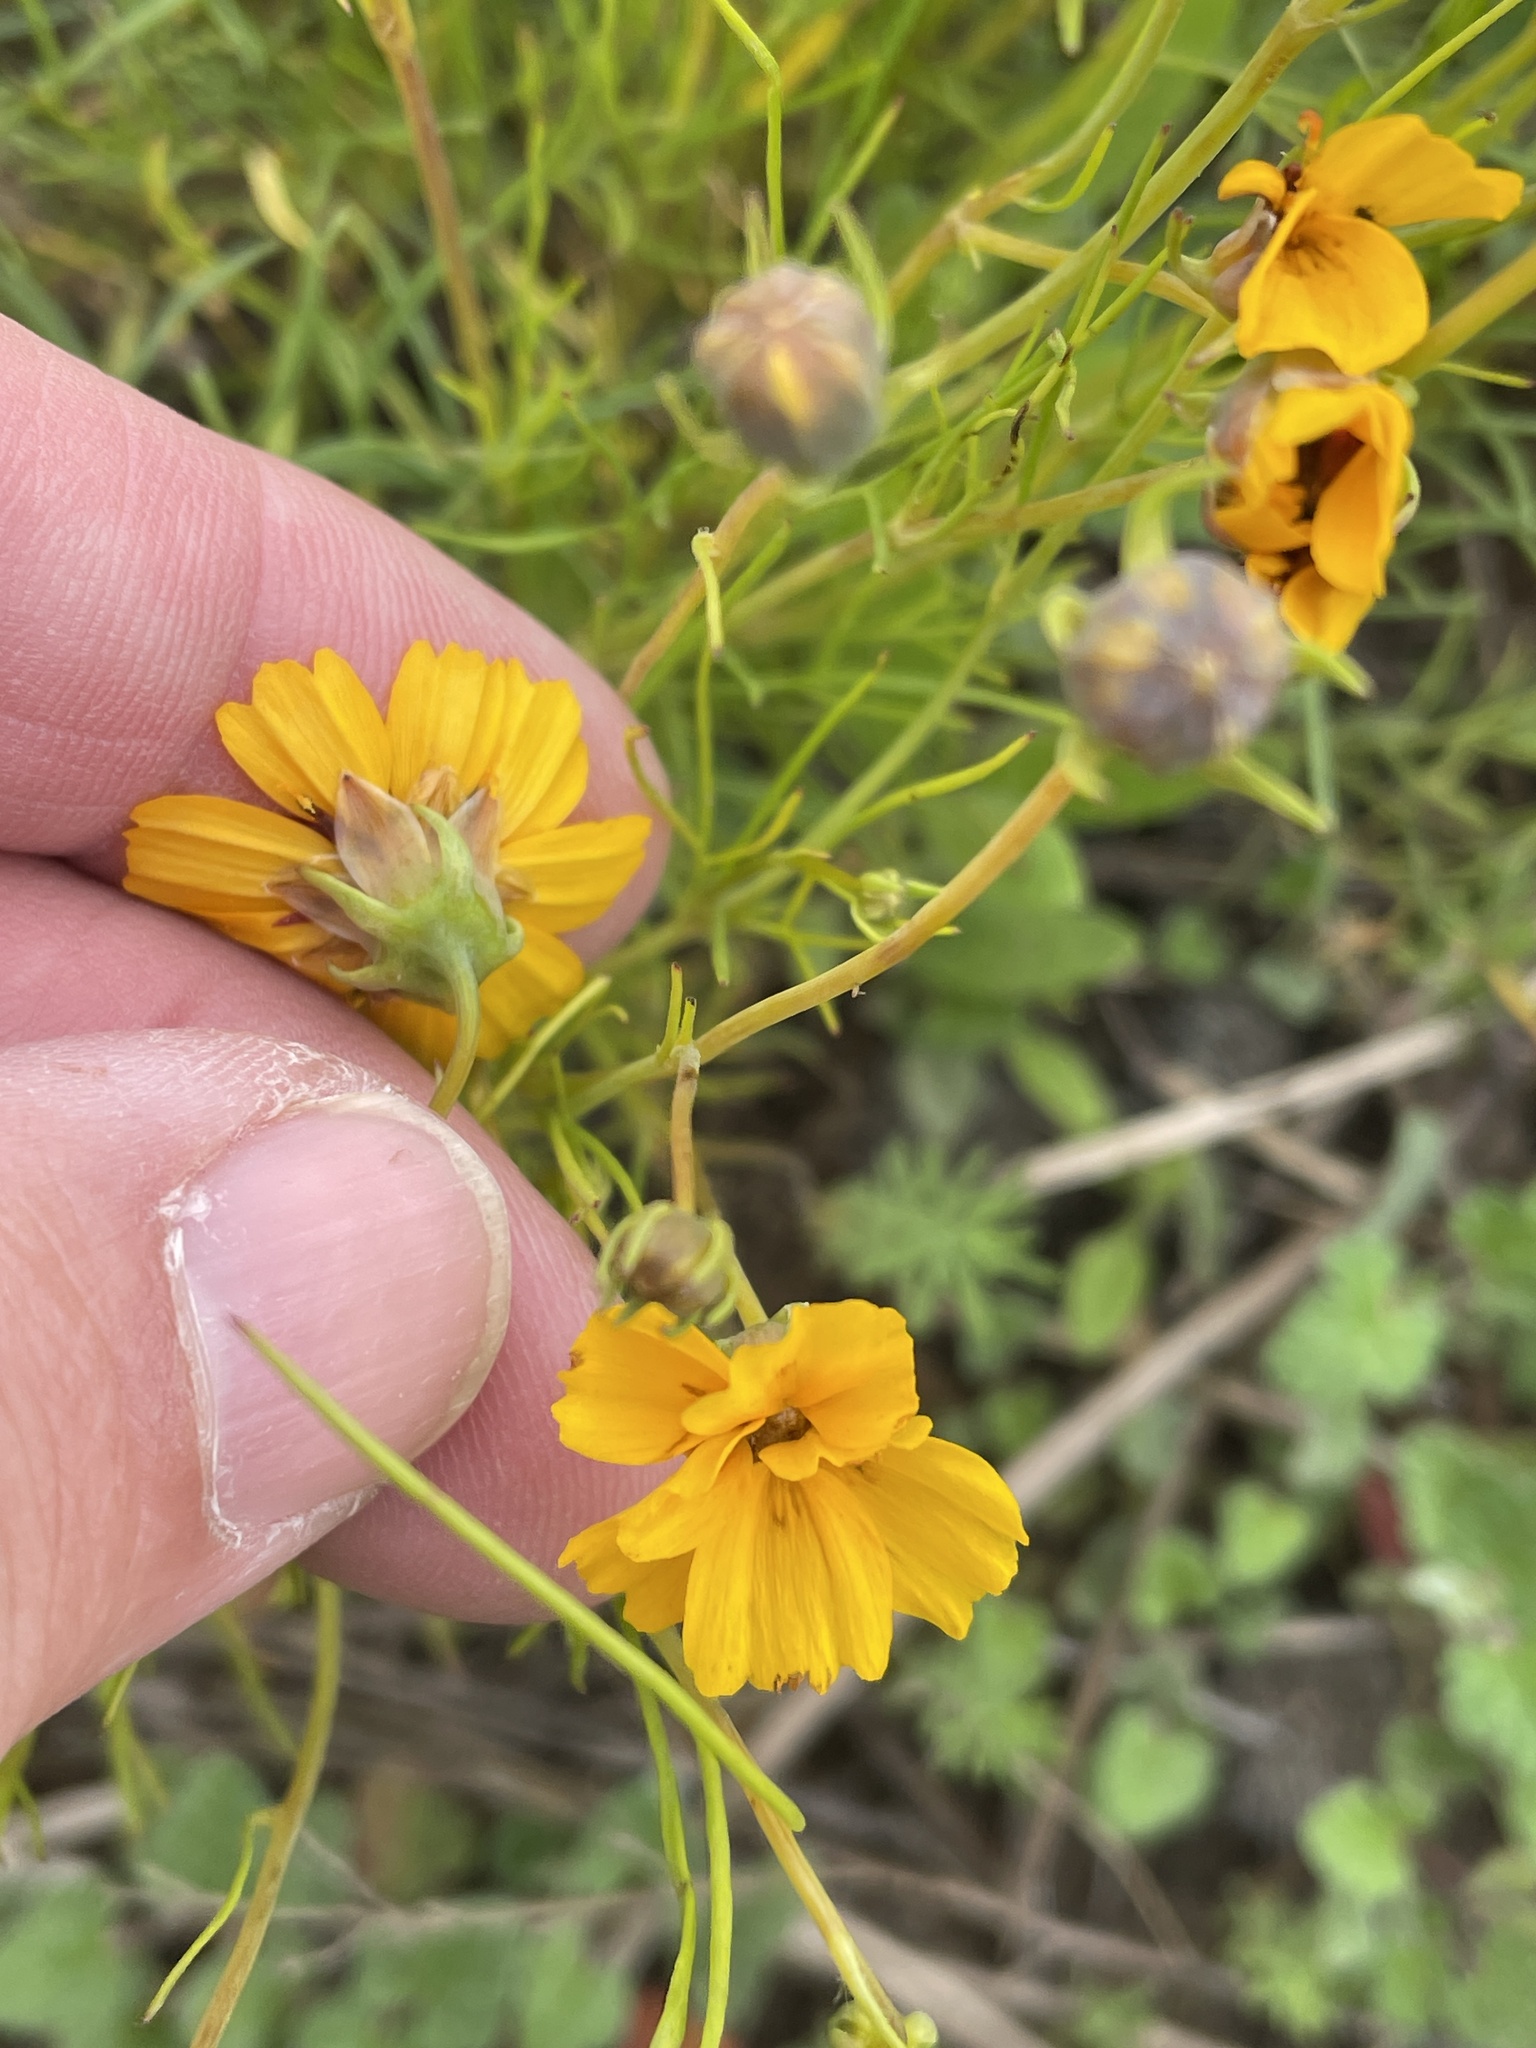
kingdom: Plantae
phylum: Tracheophyta
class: Magnoliopsida
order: Asterales
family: Asteraceae
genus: Thelesperma
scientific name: Thelesperma filifolium
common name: Stiff greenthread
